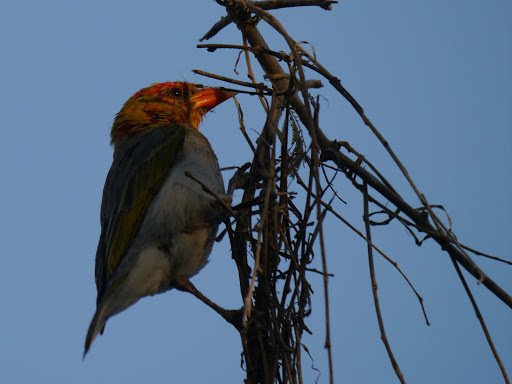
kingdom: Animalia
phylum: Chordata
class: Aves
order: Passeriformes
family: Ploceidae
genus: Anaplectes
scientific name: Anaplectes rubriceps
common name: Red-headed weaver
